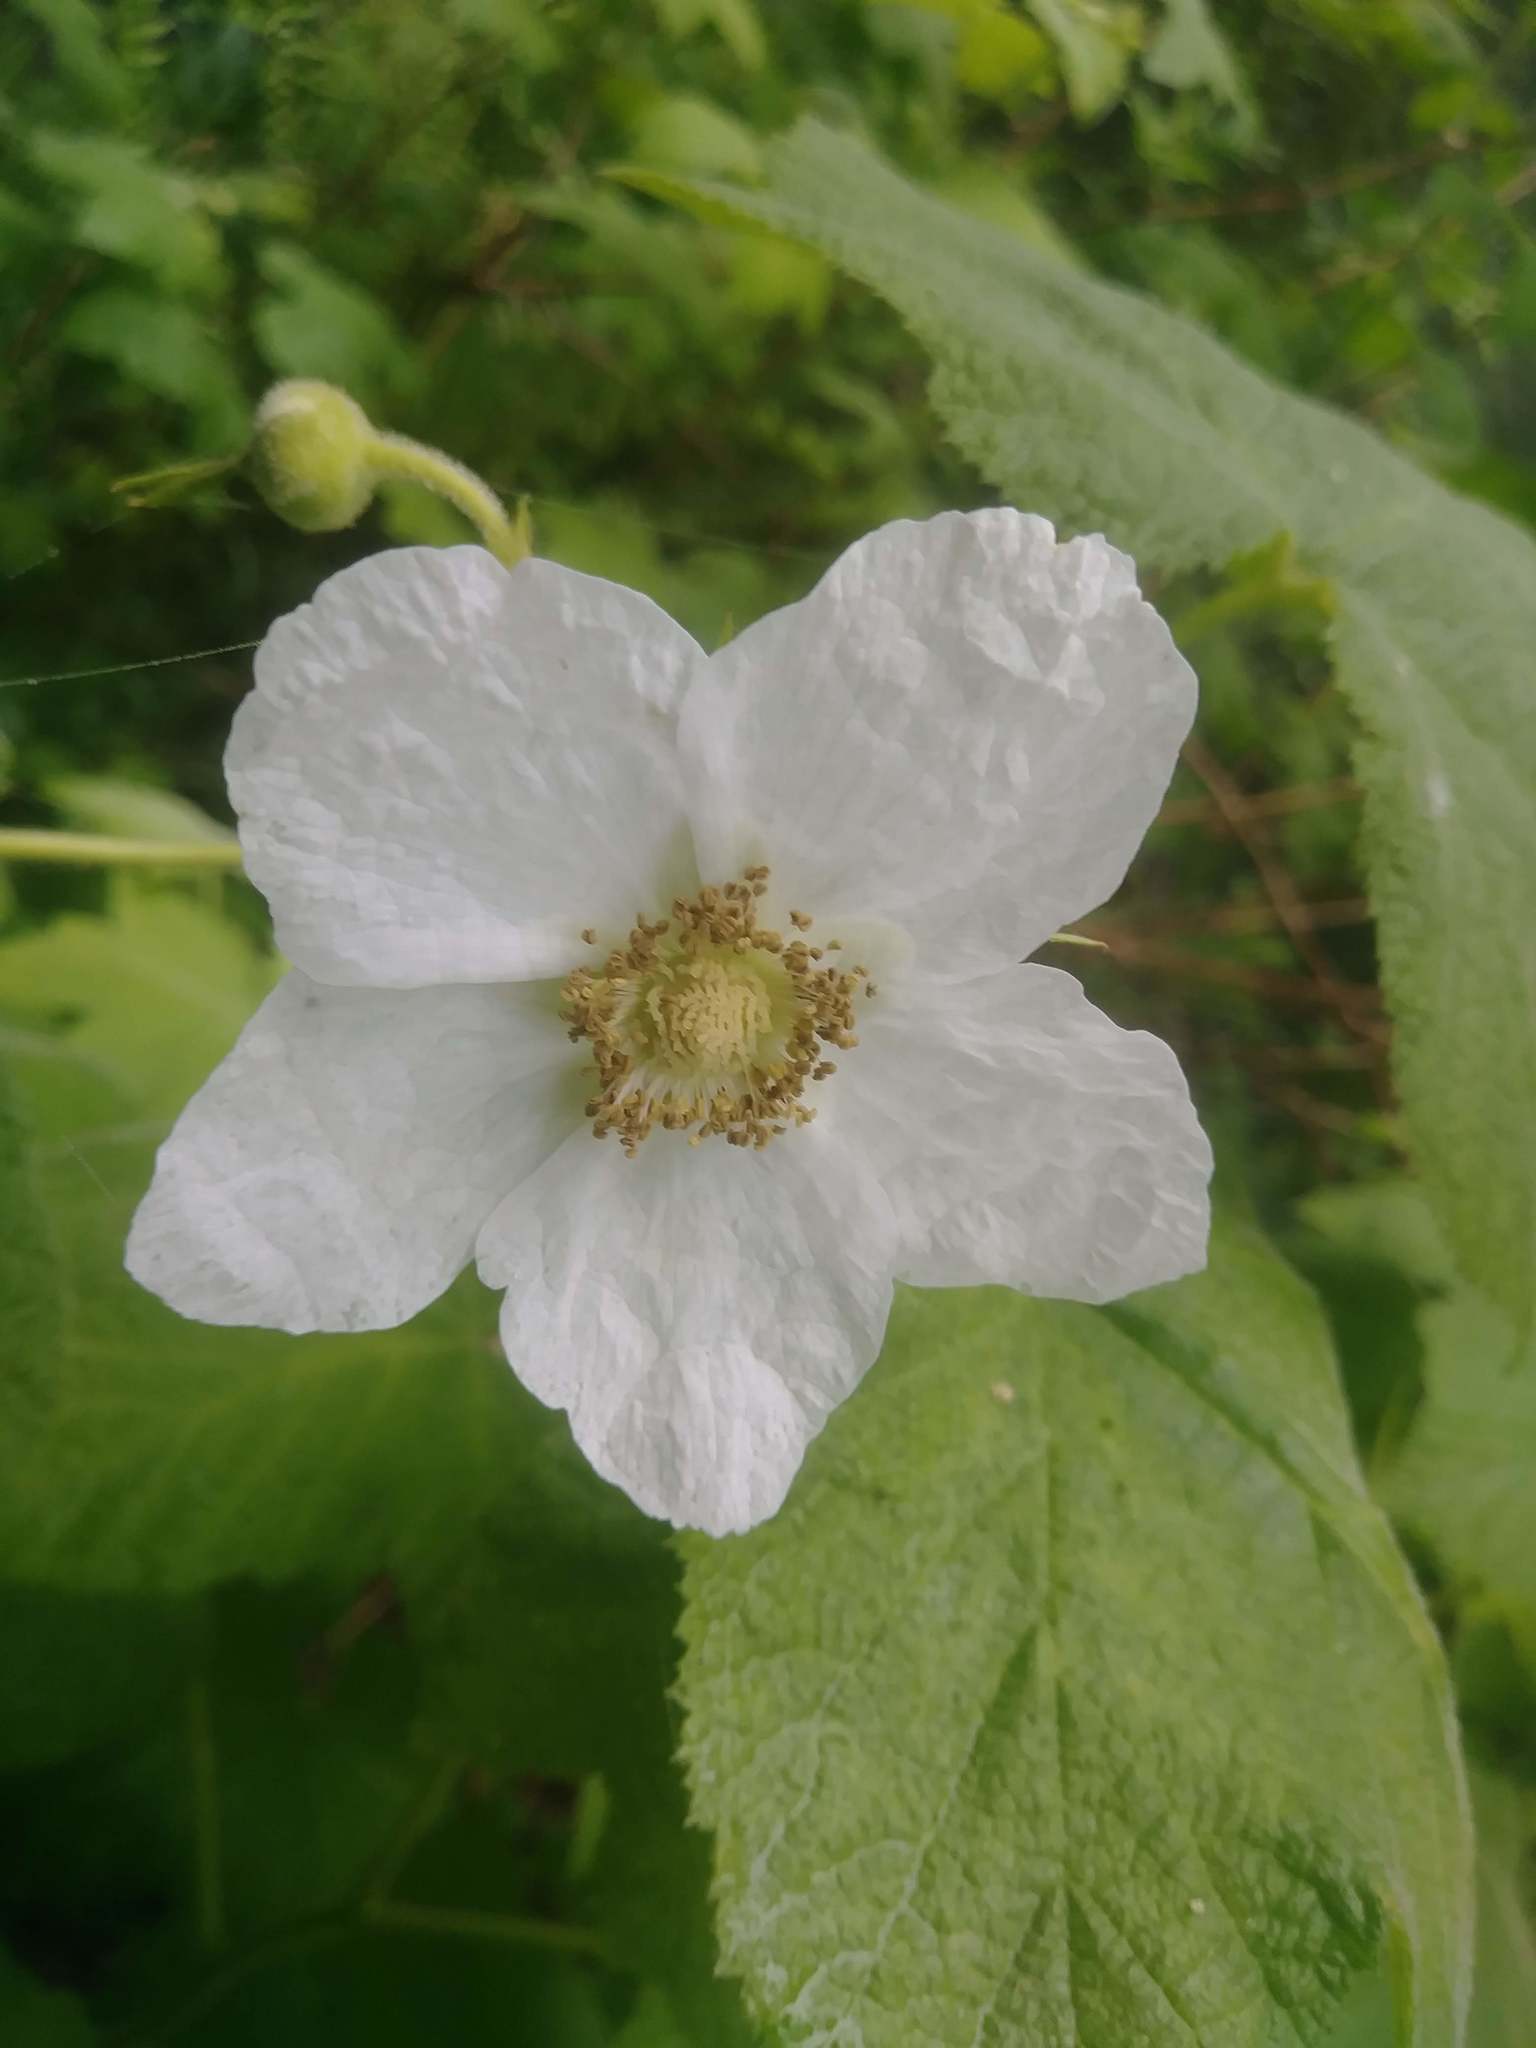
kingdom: Plantae
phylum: Tracheophyta
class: Magnoliopsida
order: Rosales
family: Rosaceae
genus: Rubus
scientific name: Rubus parviflorus
